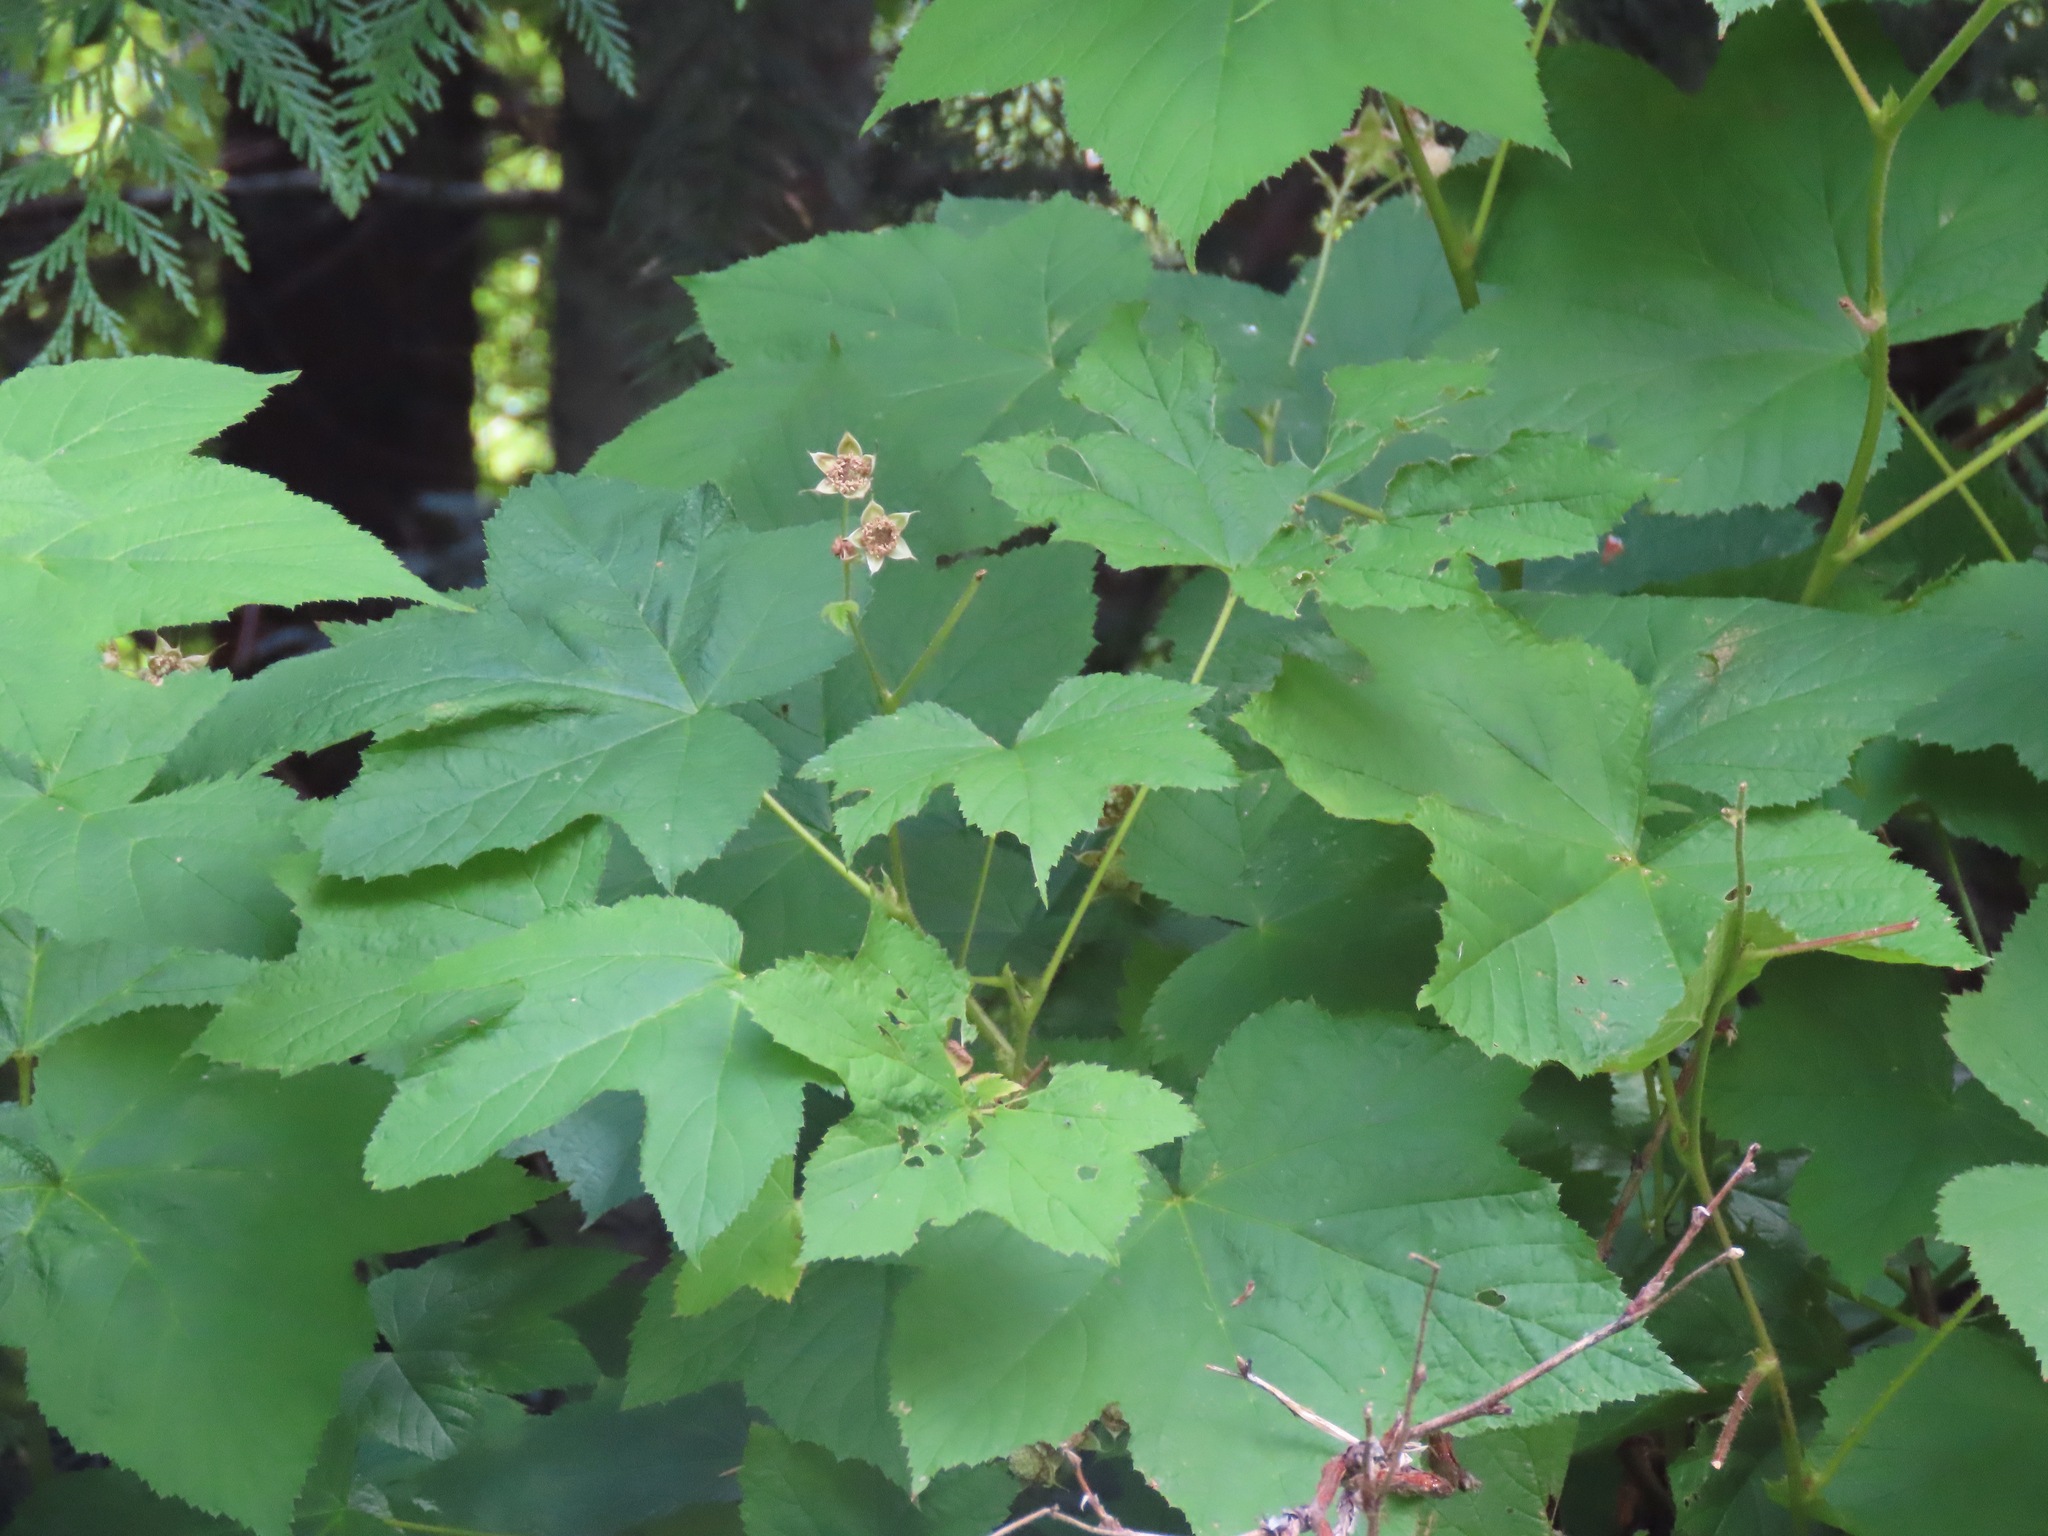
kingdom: Plantae
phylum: Tracheophyta
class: Magnoliopsida
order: Rosales
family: Rosaceae
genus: Rubus
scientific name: Rubus parviflorus
